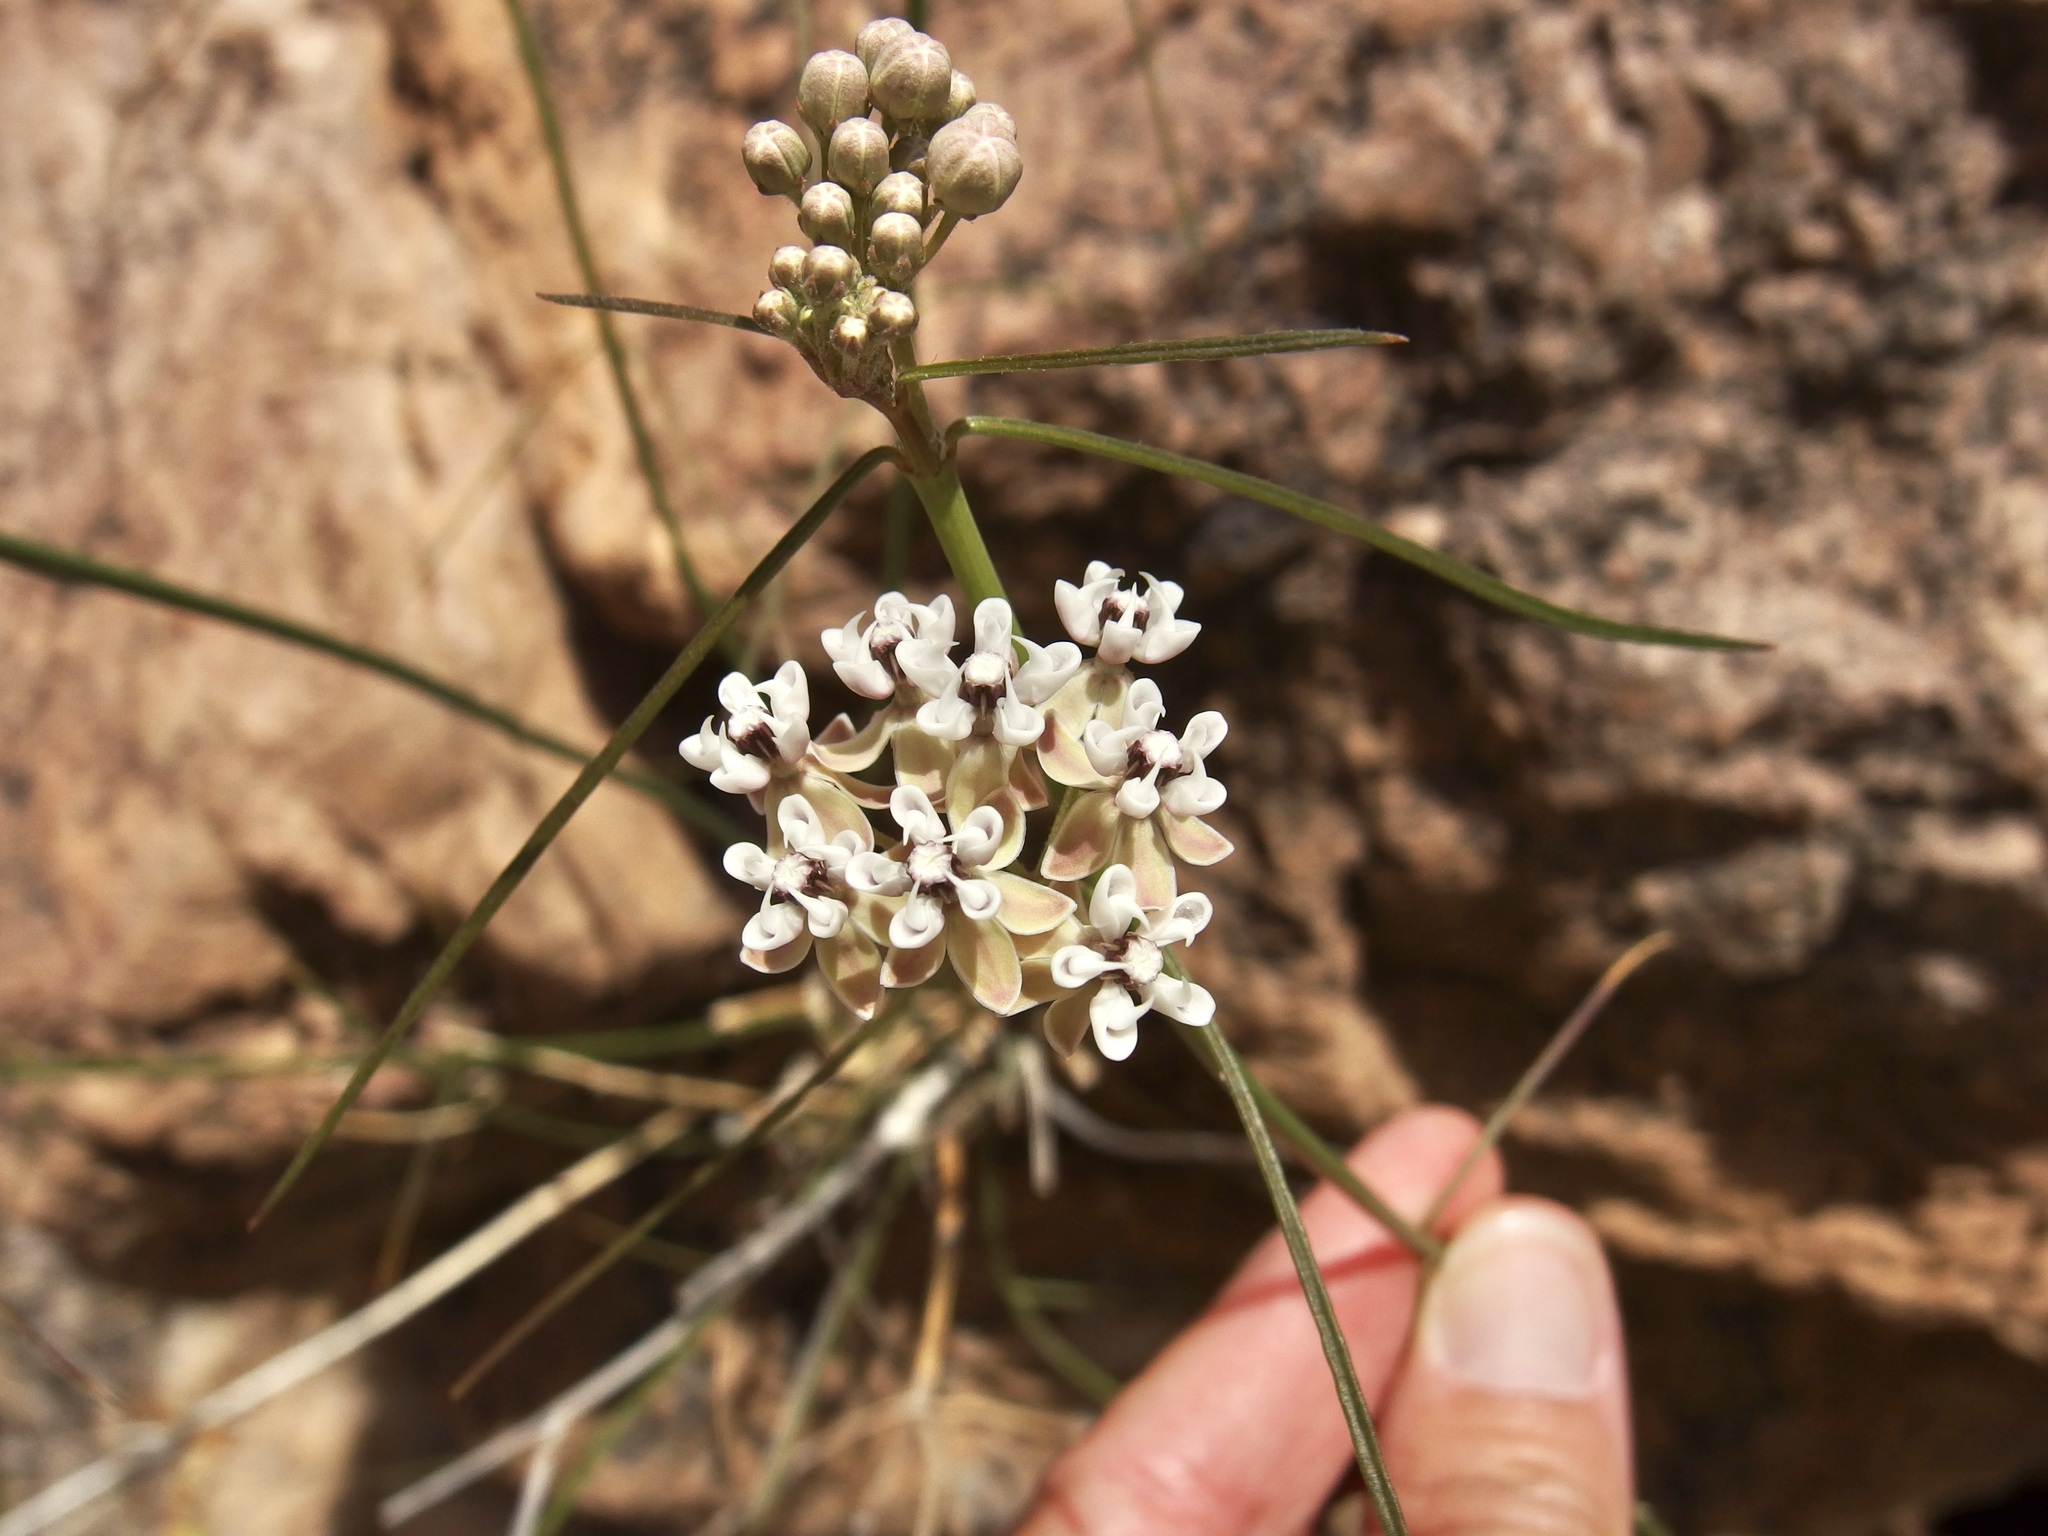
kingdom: Plantae
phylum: Tracheophyta
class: Magnoliopsida
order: Gentianales
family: Apocynaceae
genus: Asclepias
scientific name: Asclepias leptopus
